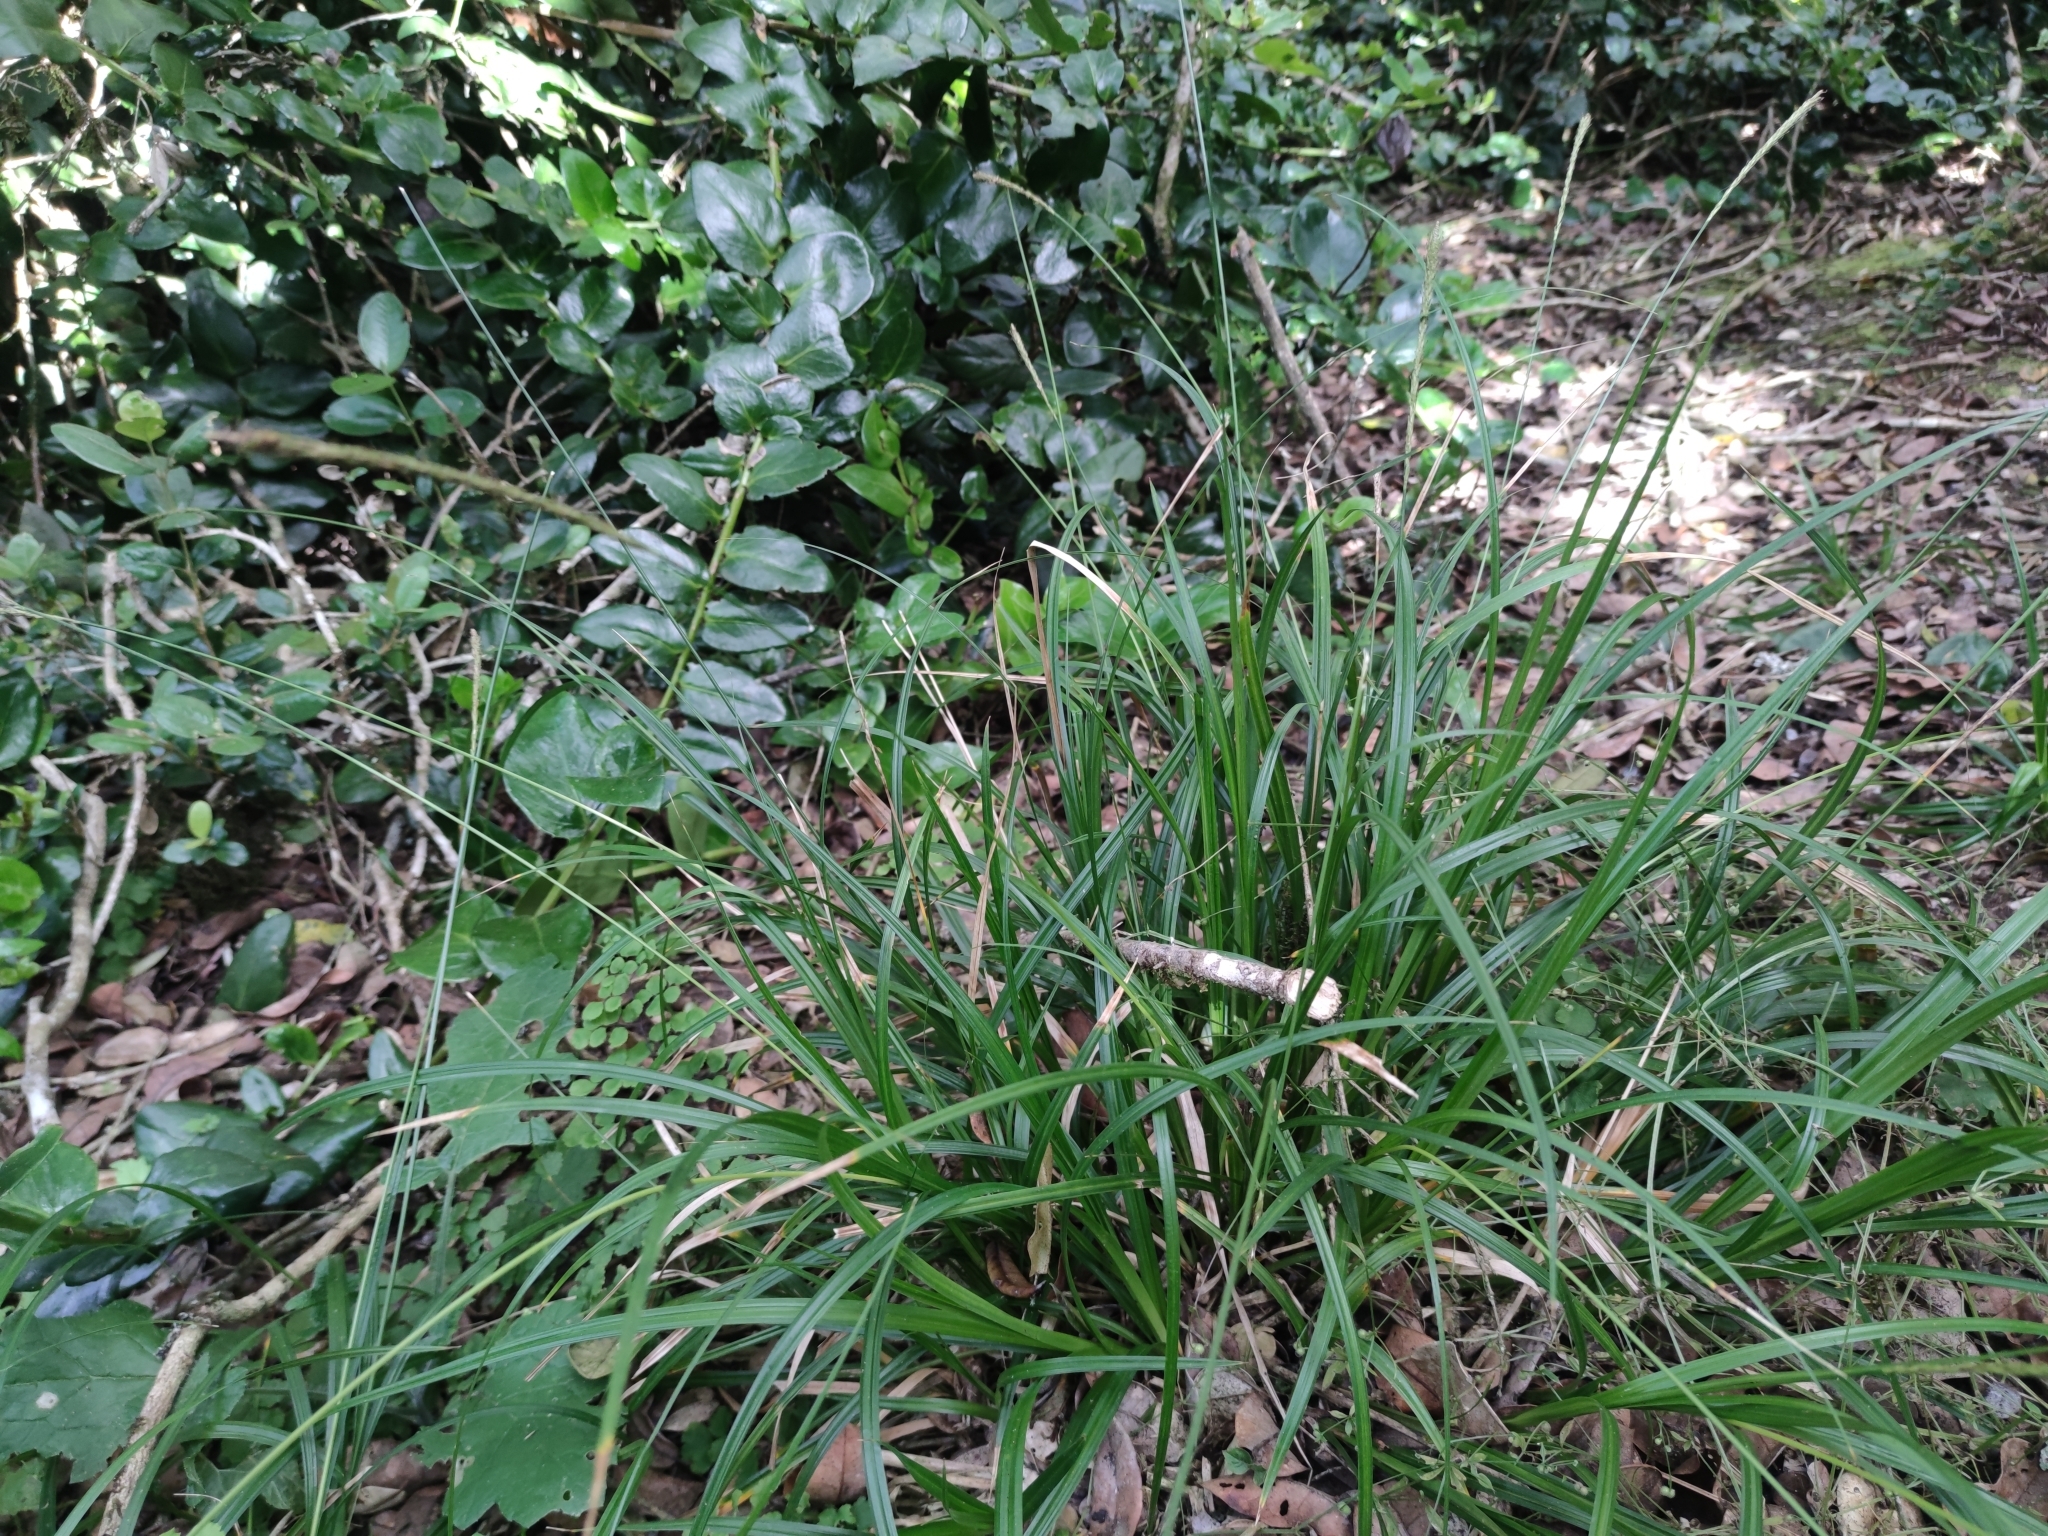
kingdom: Plantae
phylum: Tracheophyta
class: Liliopsida
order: Poales
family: Cyperaceae
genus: Carex
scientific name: Carex quinquin
